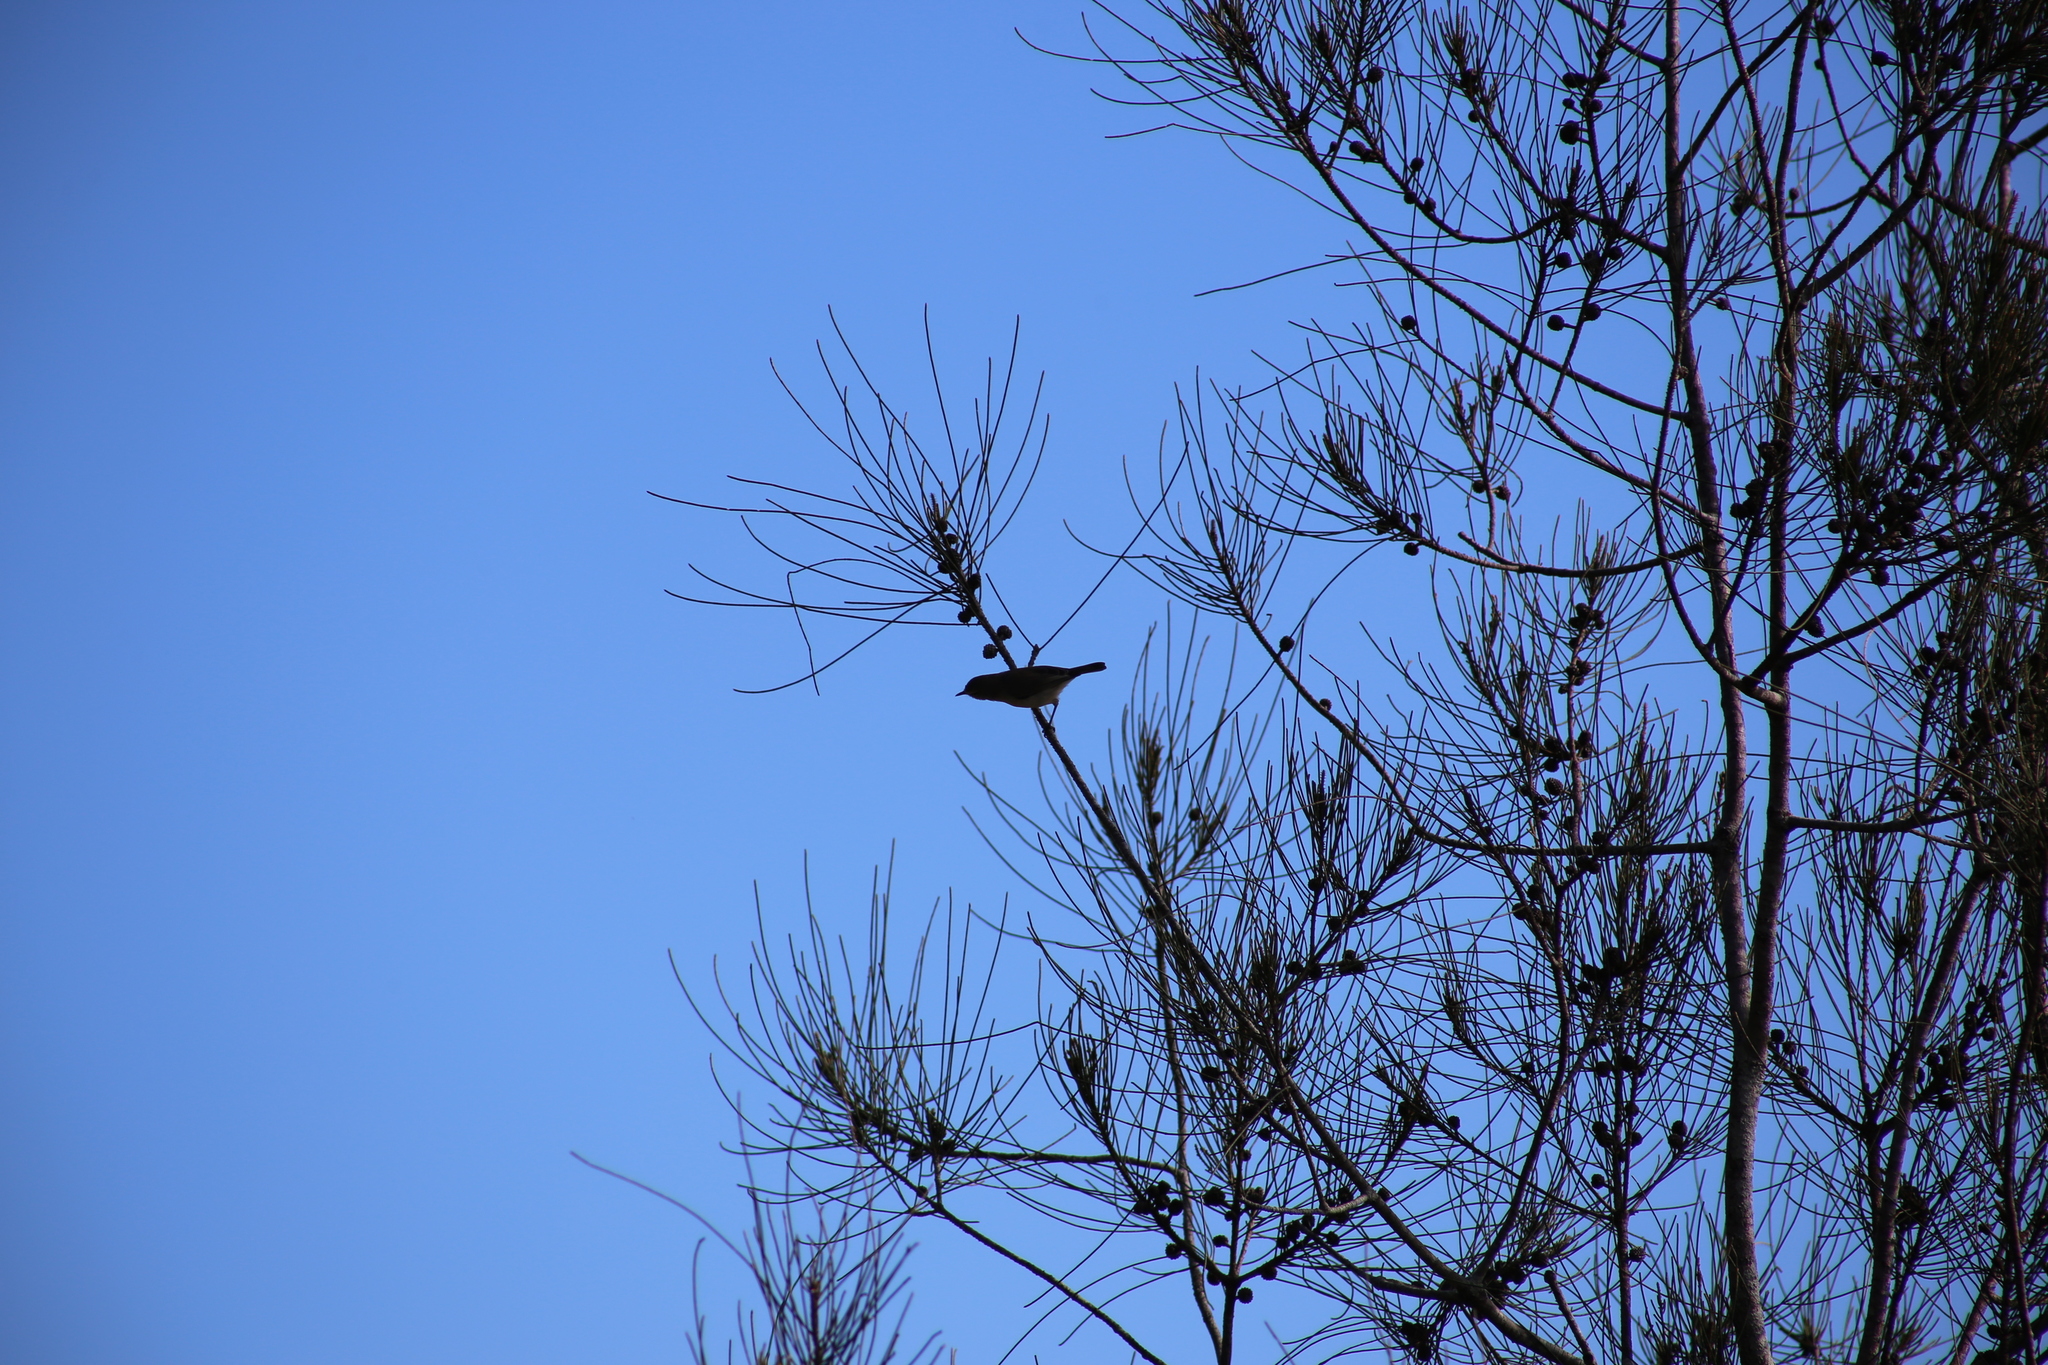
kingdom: Animalia
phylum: Chordata
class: Aves
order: Passeriformes
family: Acanthizidae
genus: Gerygone
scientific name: Gerygone levigaster
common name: Mangrove gerygone
